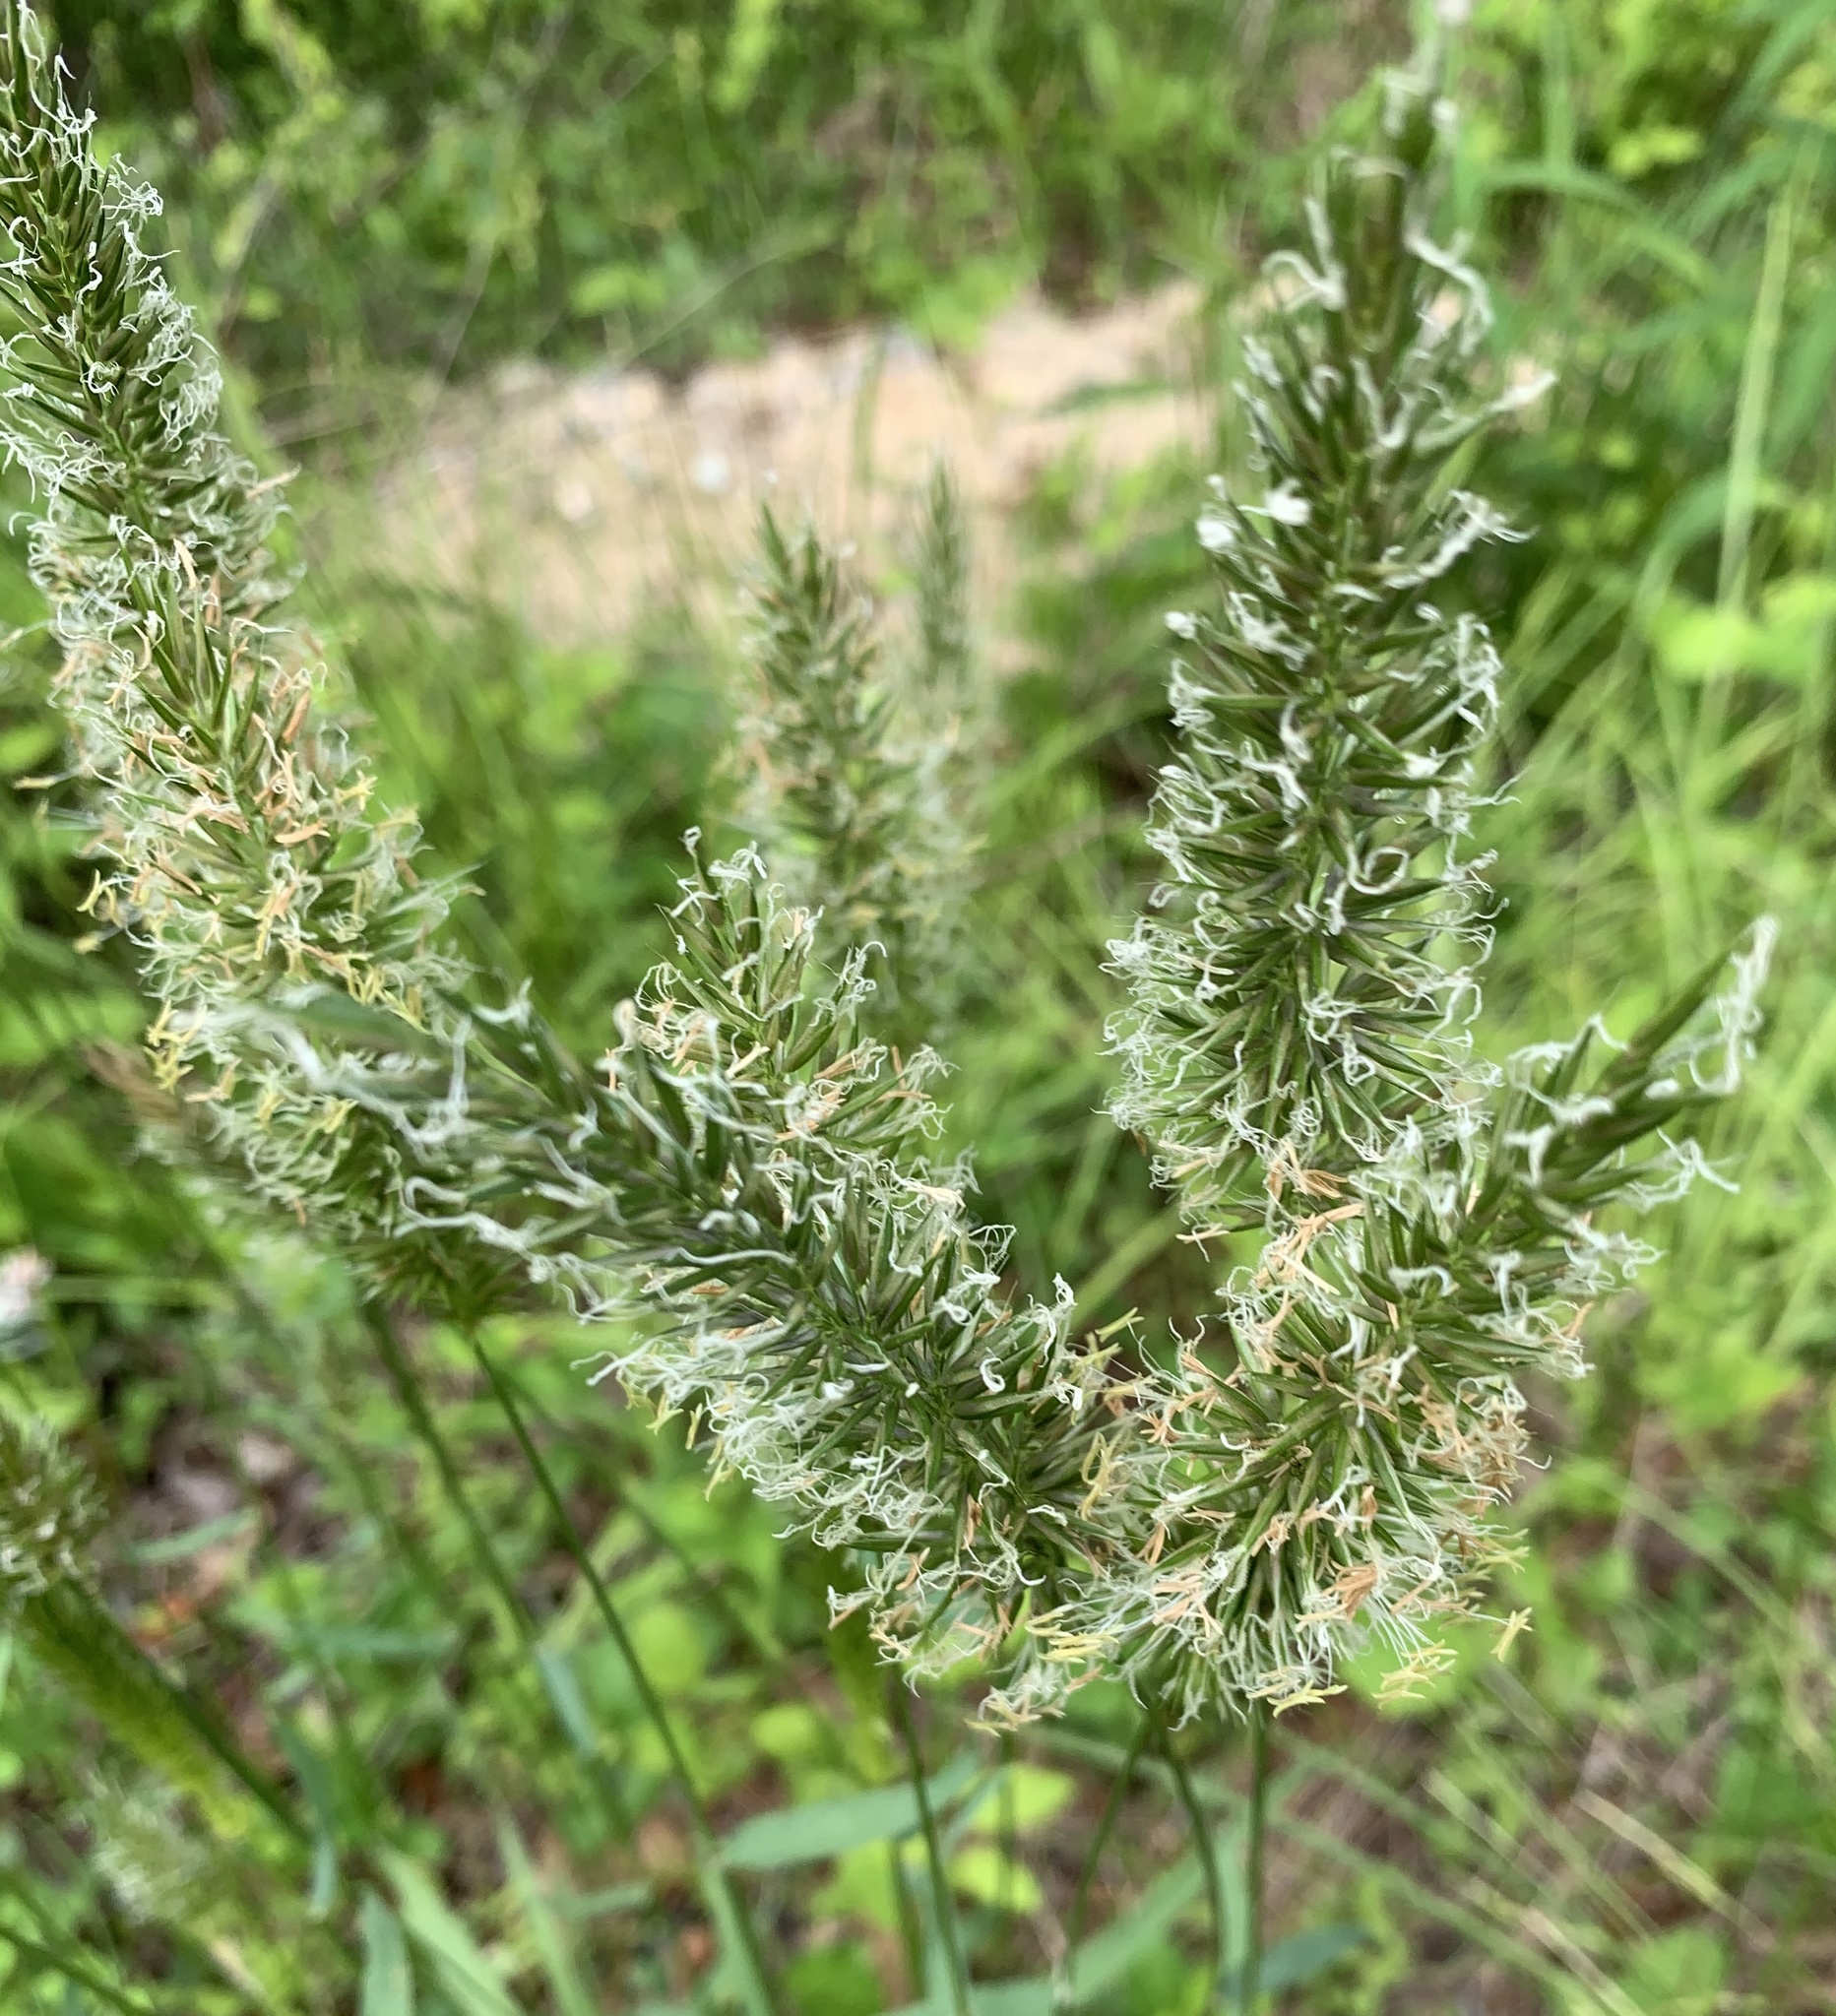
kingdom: Plantae
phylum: Tracheophyta
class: Liliopsida
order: Poales
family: Poaceae
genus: Anthoxanthum
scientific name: Anthoxanthum odoratum
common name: Sweet vernalgrass
